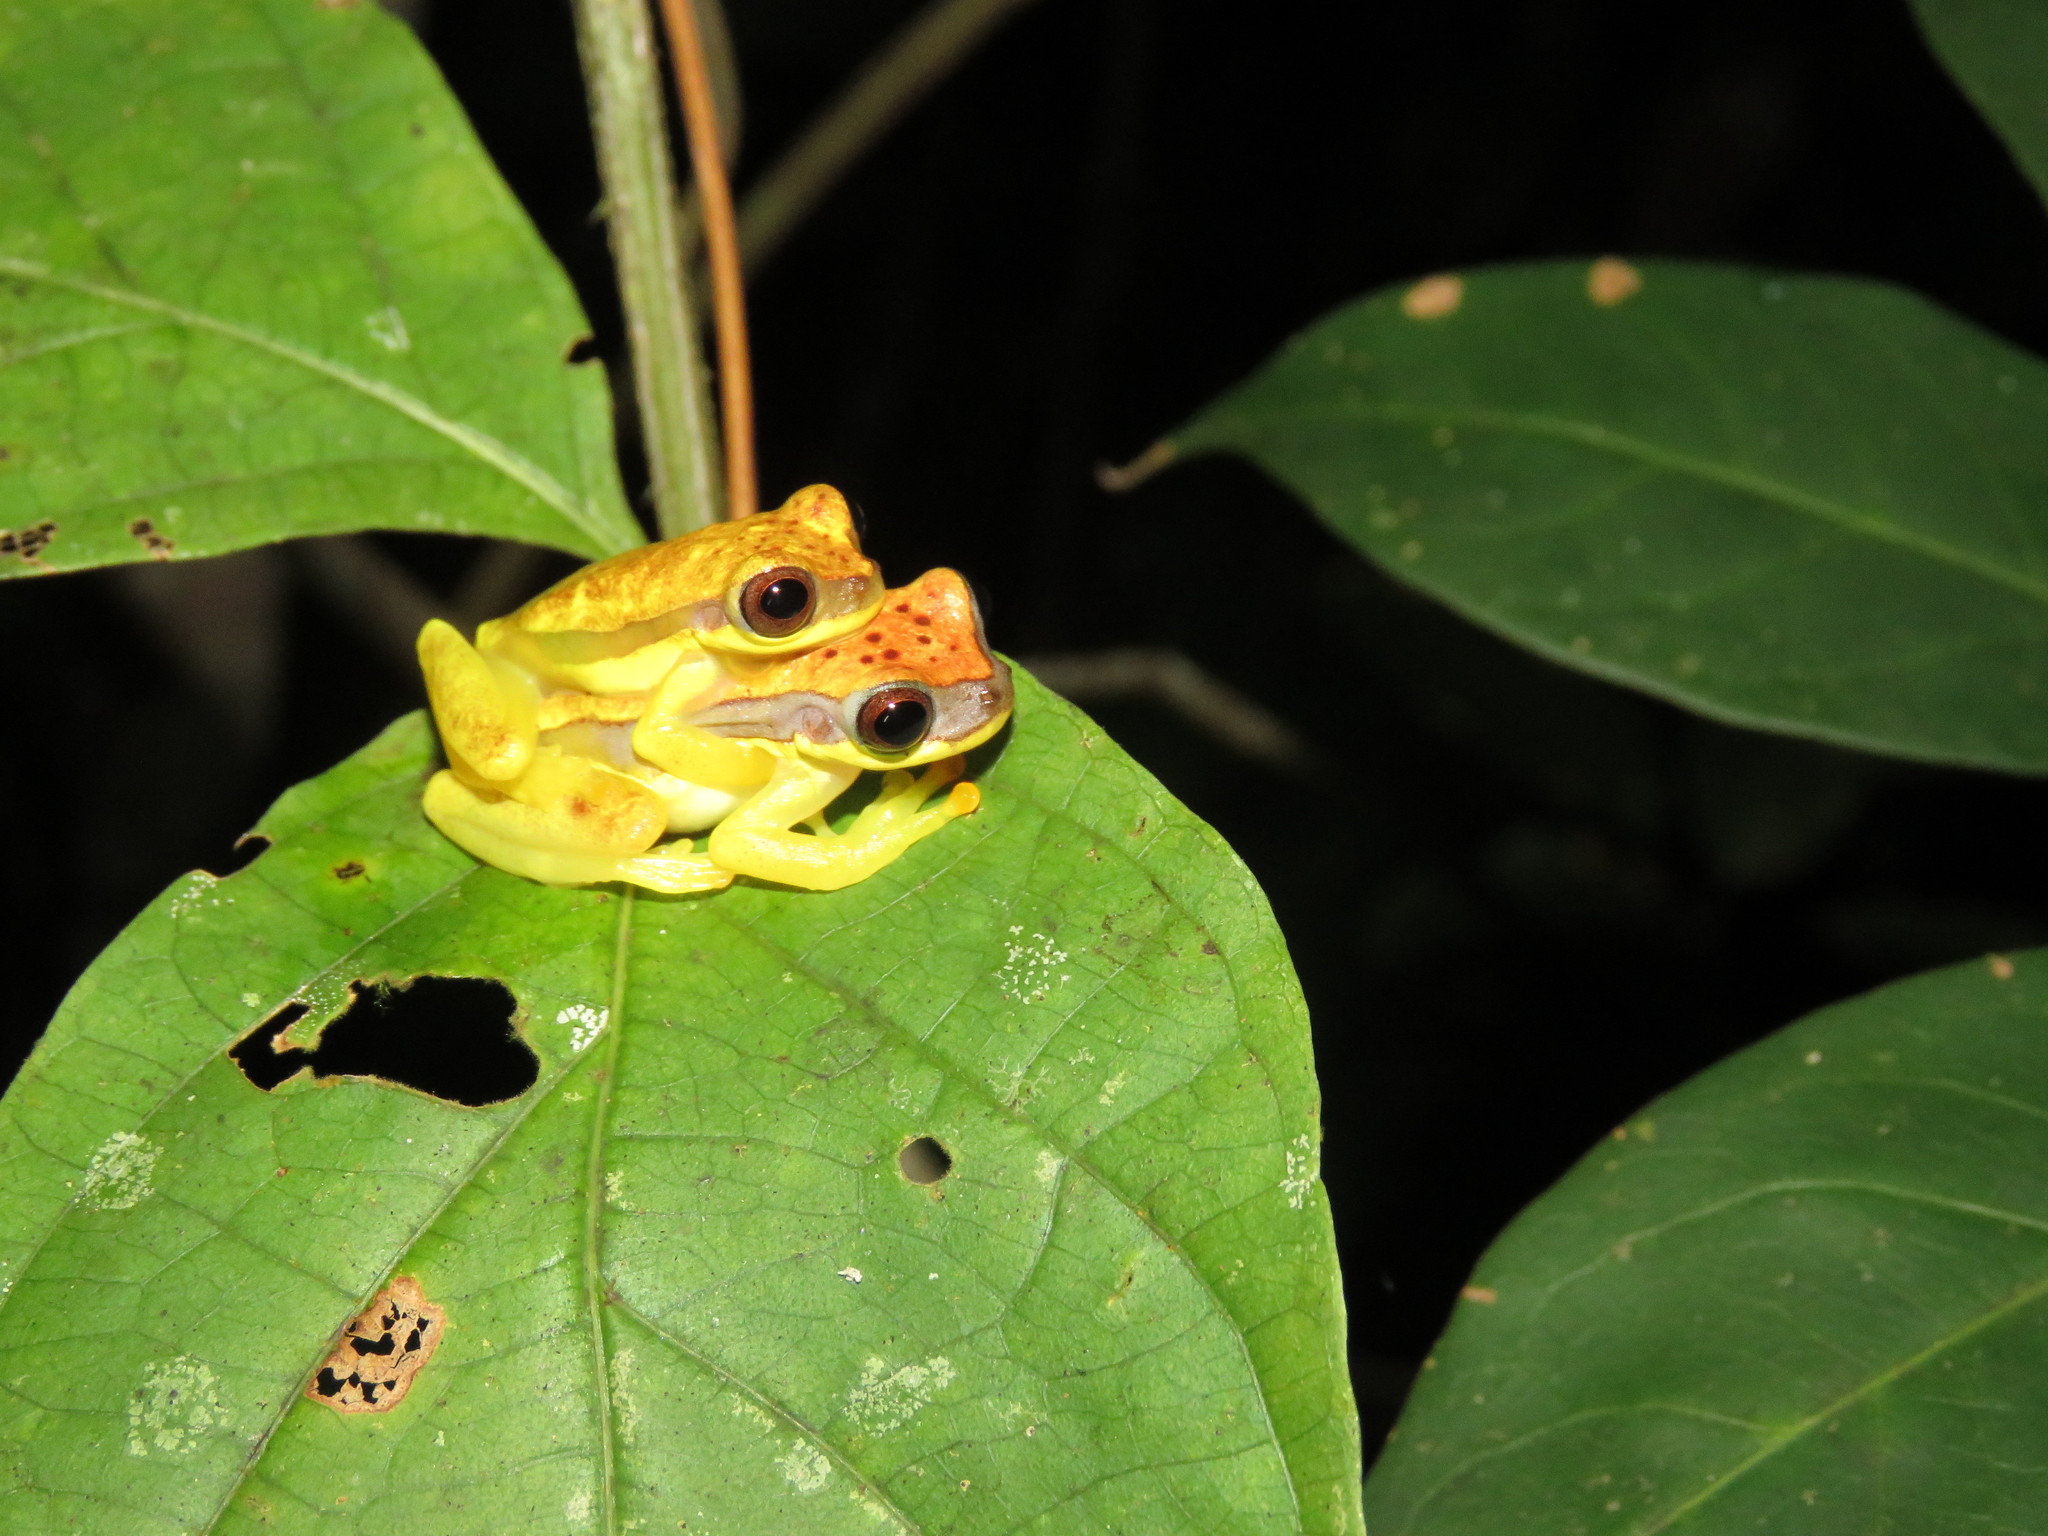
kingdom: Animalia
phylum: Chordata
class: Amphibia
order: Anura
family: Hylidae
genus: Dendropsophus
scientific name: Dendropsophus rhodopeplus
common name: Red-skirted treefrog
